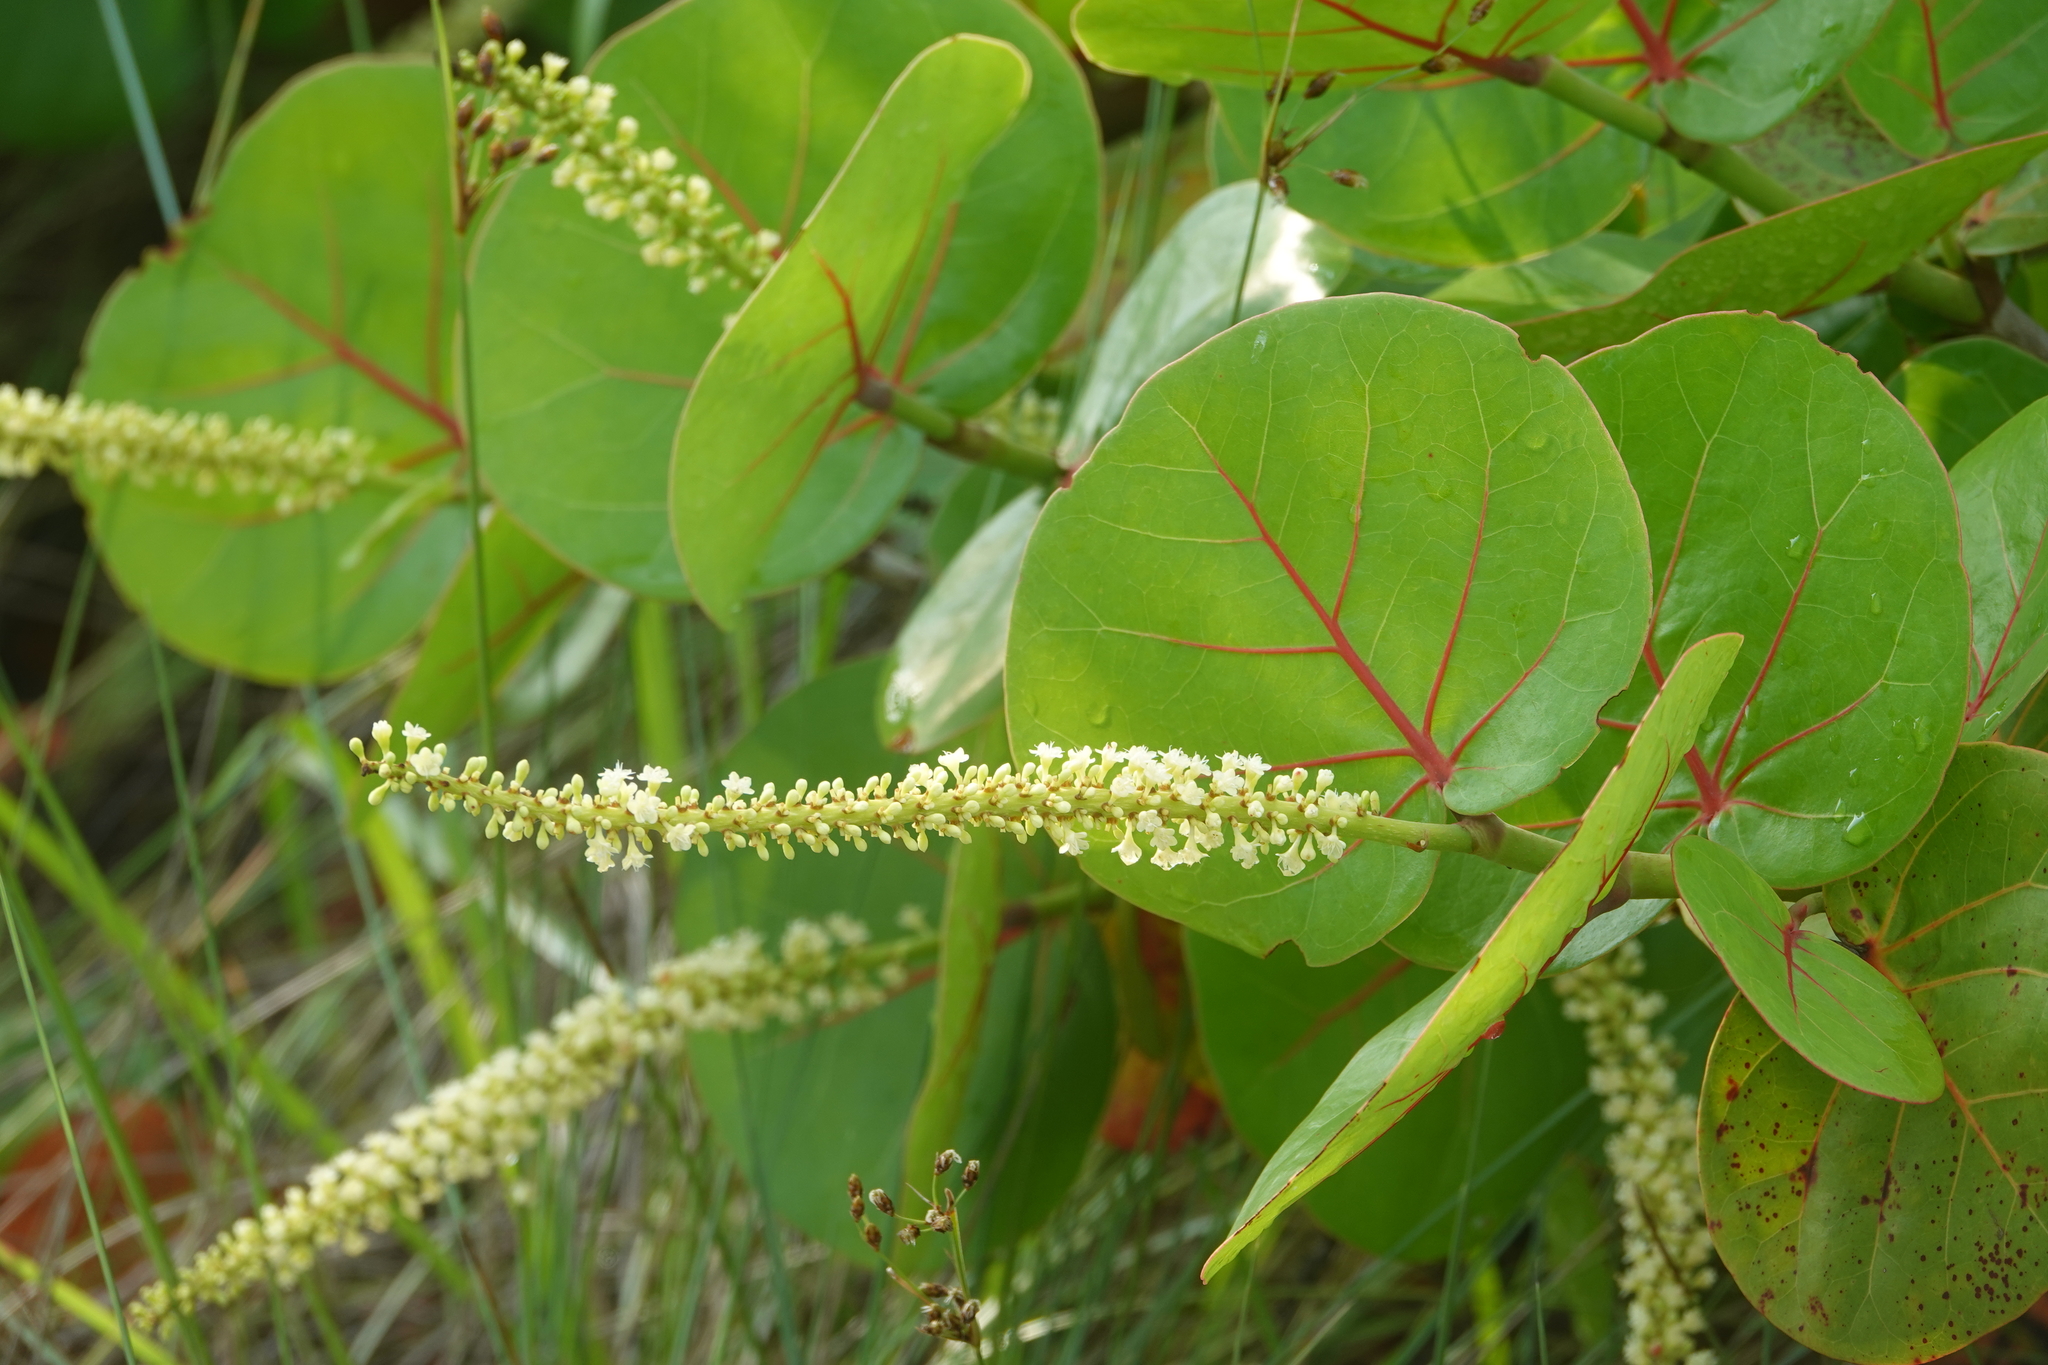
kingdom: Plantae
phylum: Tracheophyta
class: Magnoliopsida
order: Caryophyllales
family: Polygonaceae
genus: Coccoloba
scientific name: Coccoloba uvifera
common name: Seagrape
